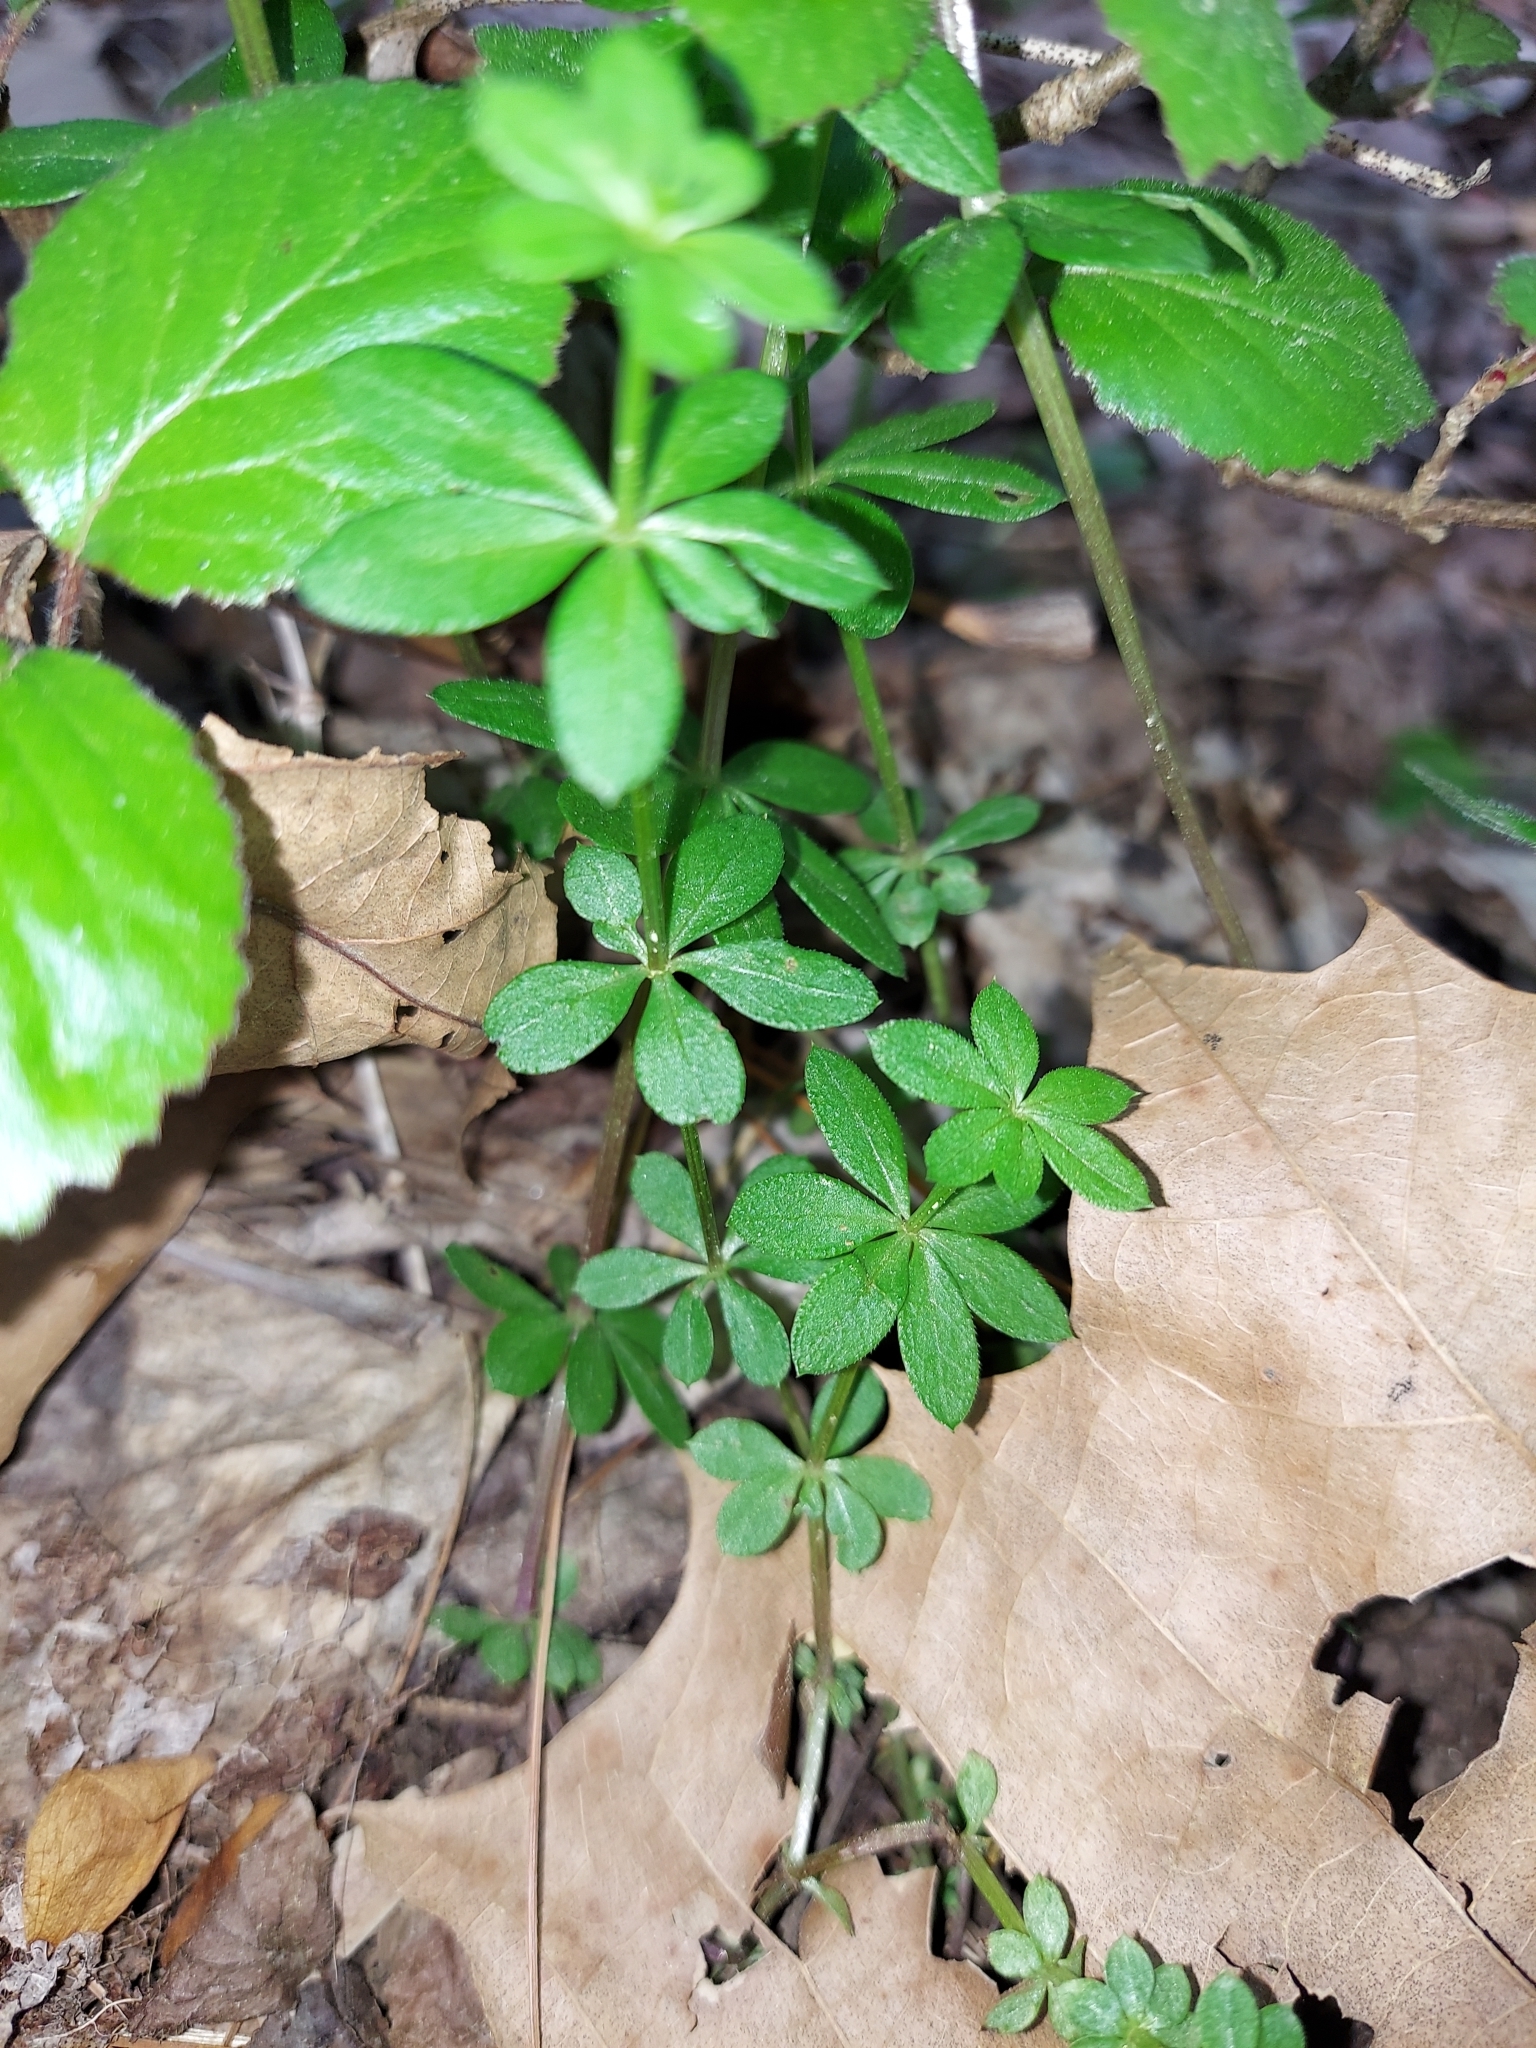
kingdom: Plantae
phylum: Tracheophyta
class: Magnoliopsida
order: Gentianales
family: Rubiaceae
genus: Galium
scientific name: Galium triflorum
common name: Fragrant bedstraw
